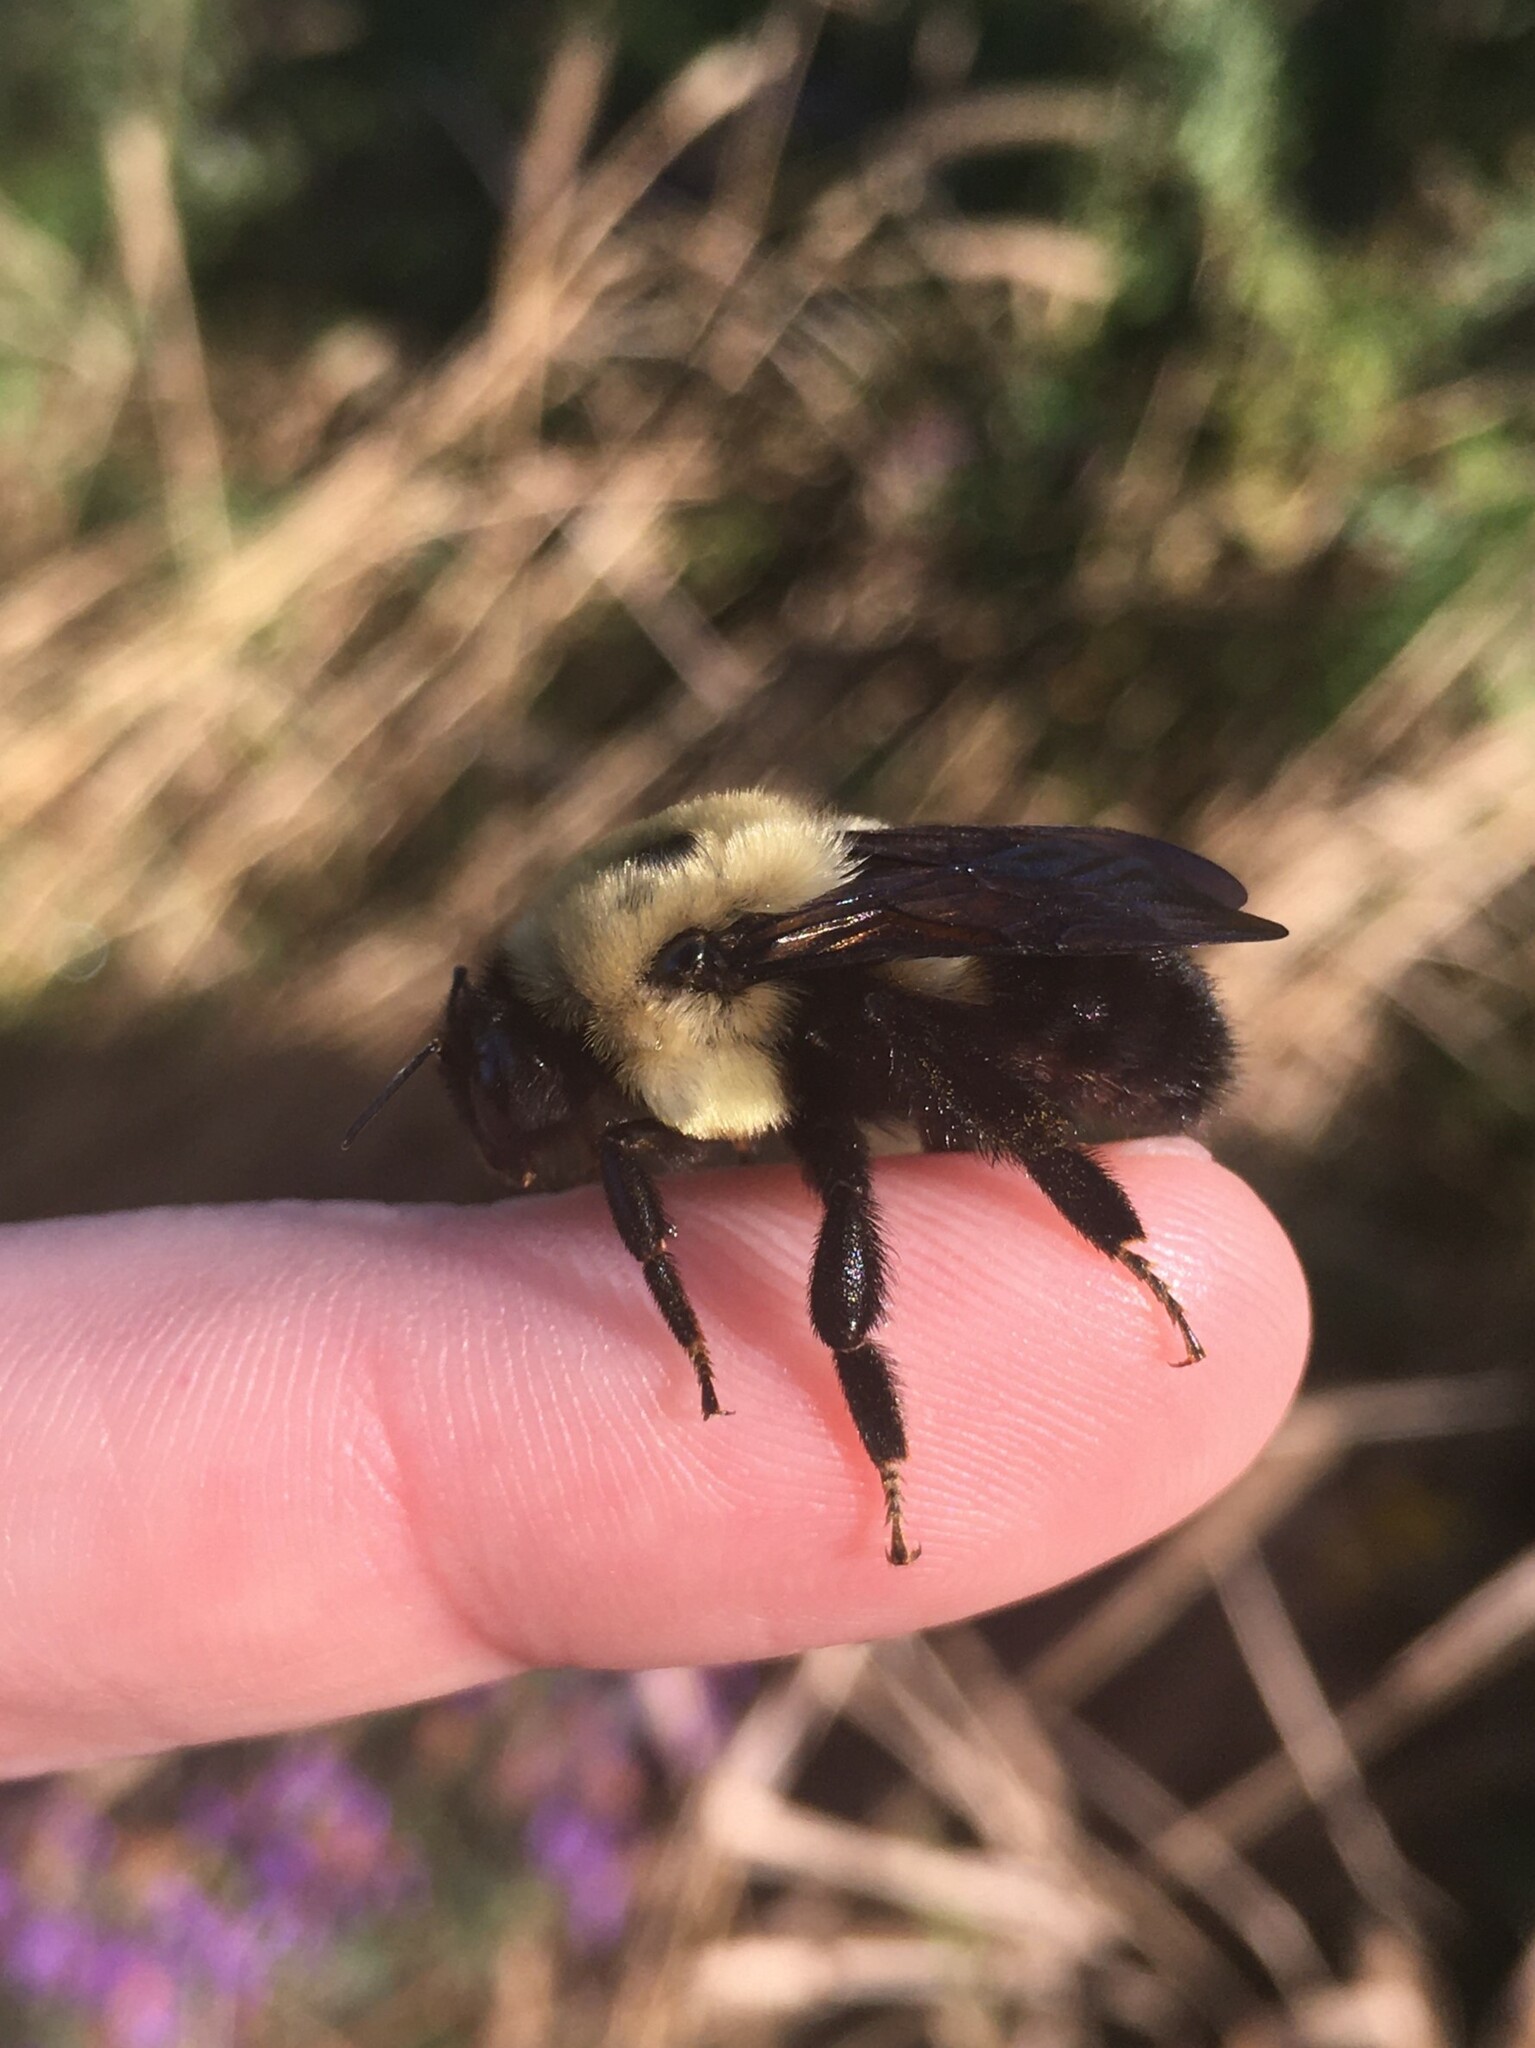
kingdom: Animalia
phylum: Arthropoda
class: Insecta
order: Hymenoptera
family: Apidae
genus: Bombus
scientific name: Bombus griseocollis
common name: Brown-belted bumble bee
